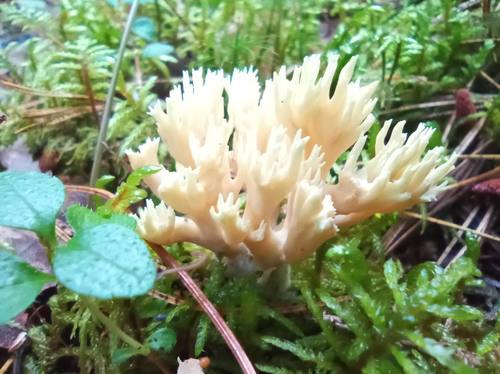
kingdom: Fungi
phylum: Basidiomycota
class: Agaricomycetes
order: Gomphales
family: Gomphaceae
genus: Ramaria
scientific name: Ramaria
